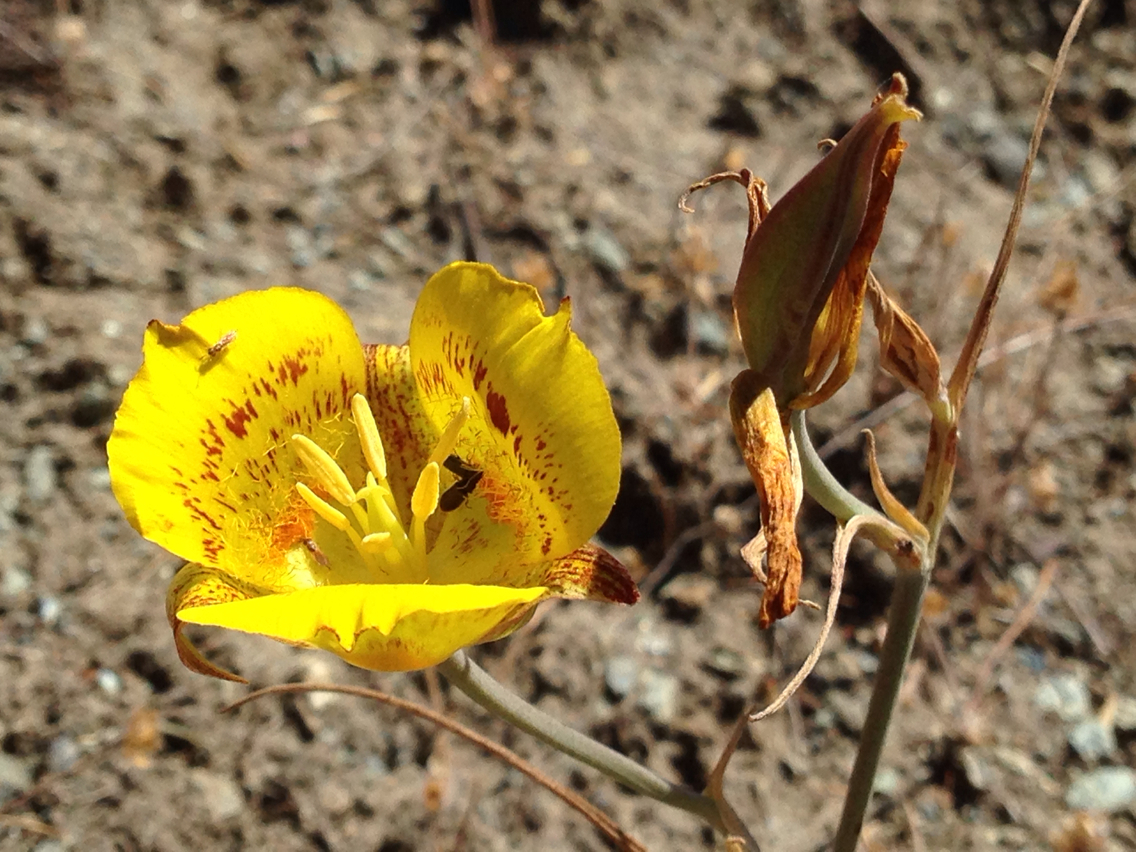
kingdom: Plantae
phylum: Tracheophyta
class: Liliopsida
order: Liliales
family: Liliaceae
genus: Calochortus
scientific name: Calochortus luteus
